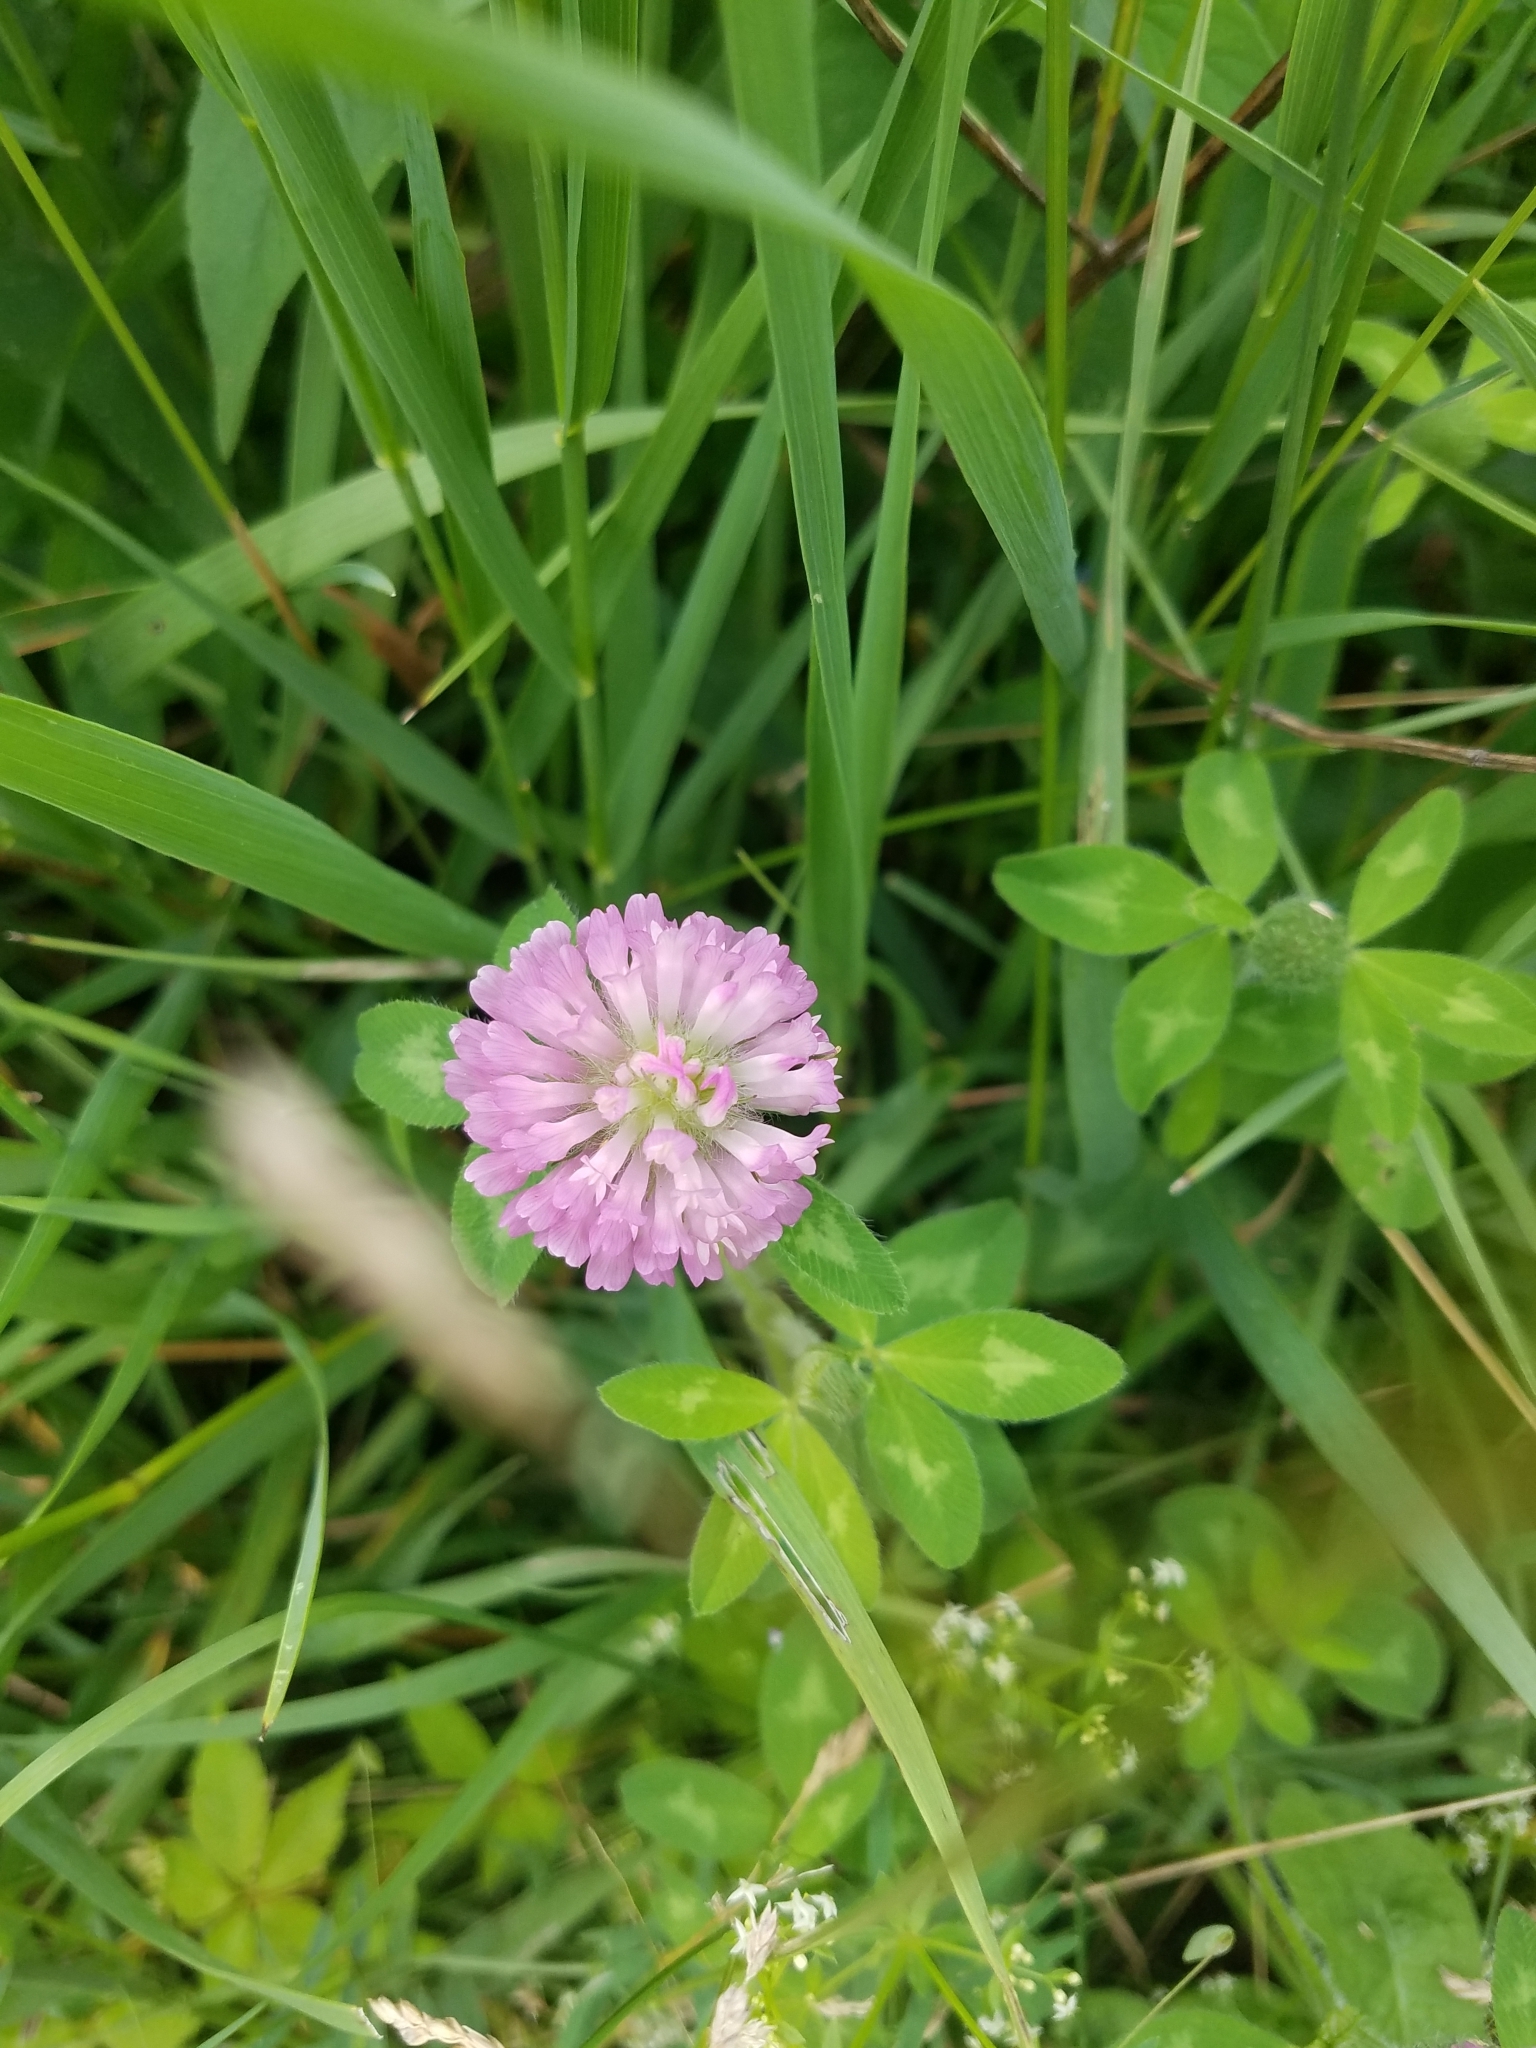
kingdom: Plantae
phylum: Tracheophyta
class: Magnoliopsida
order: Fabales
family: Fabaceae
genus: Trifolium
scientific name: Trifolium pratense
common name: Red clover
